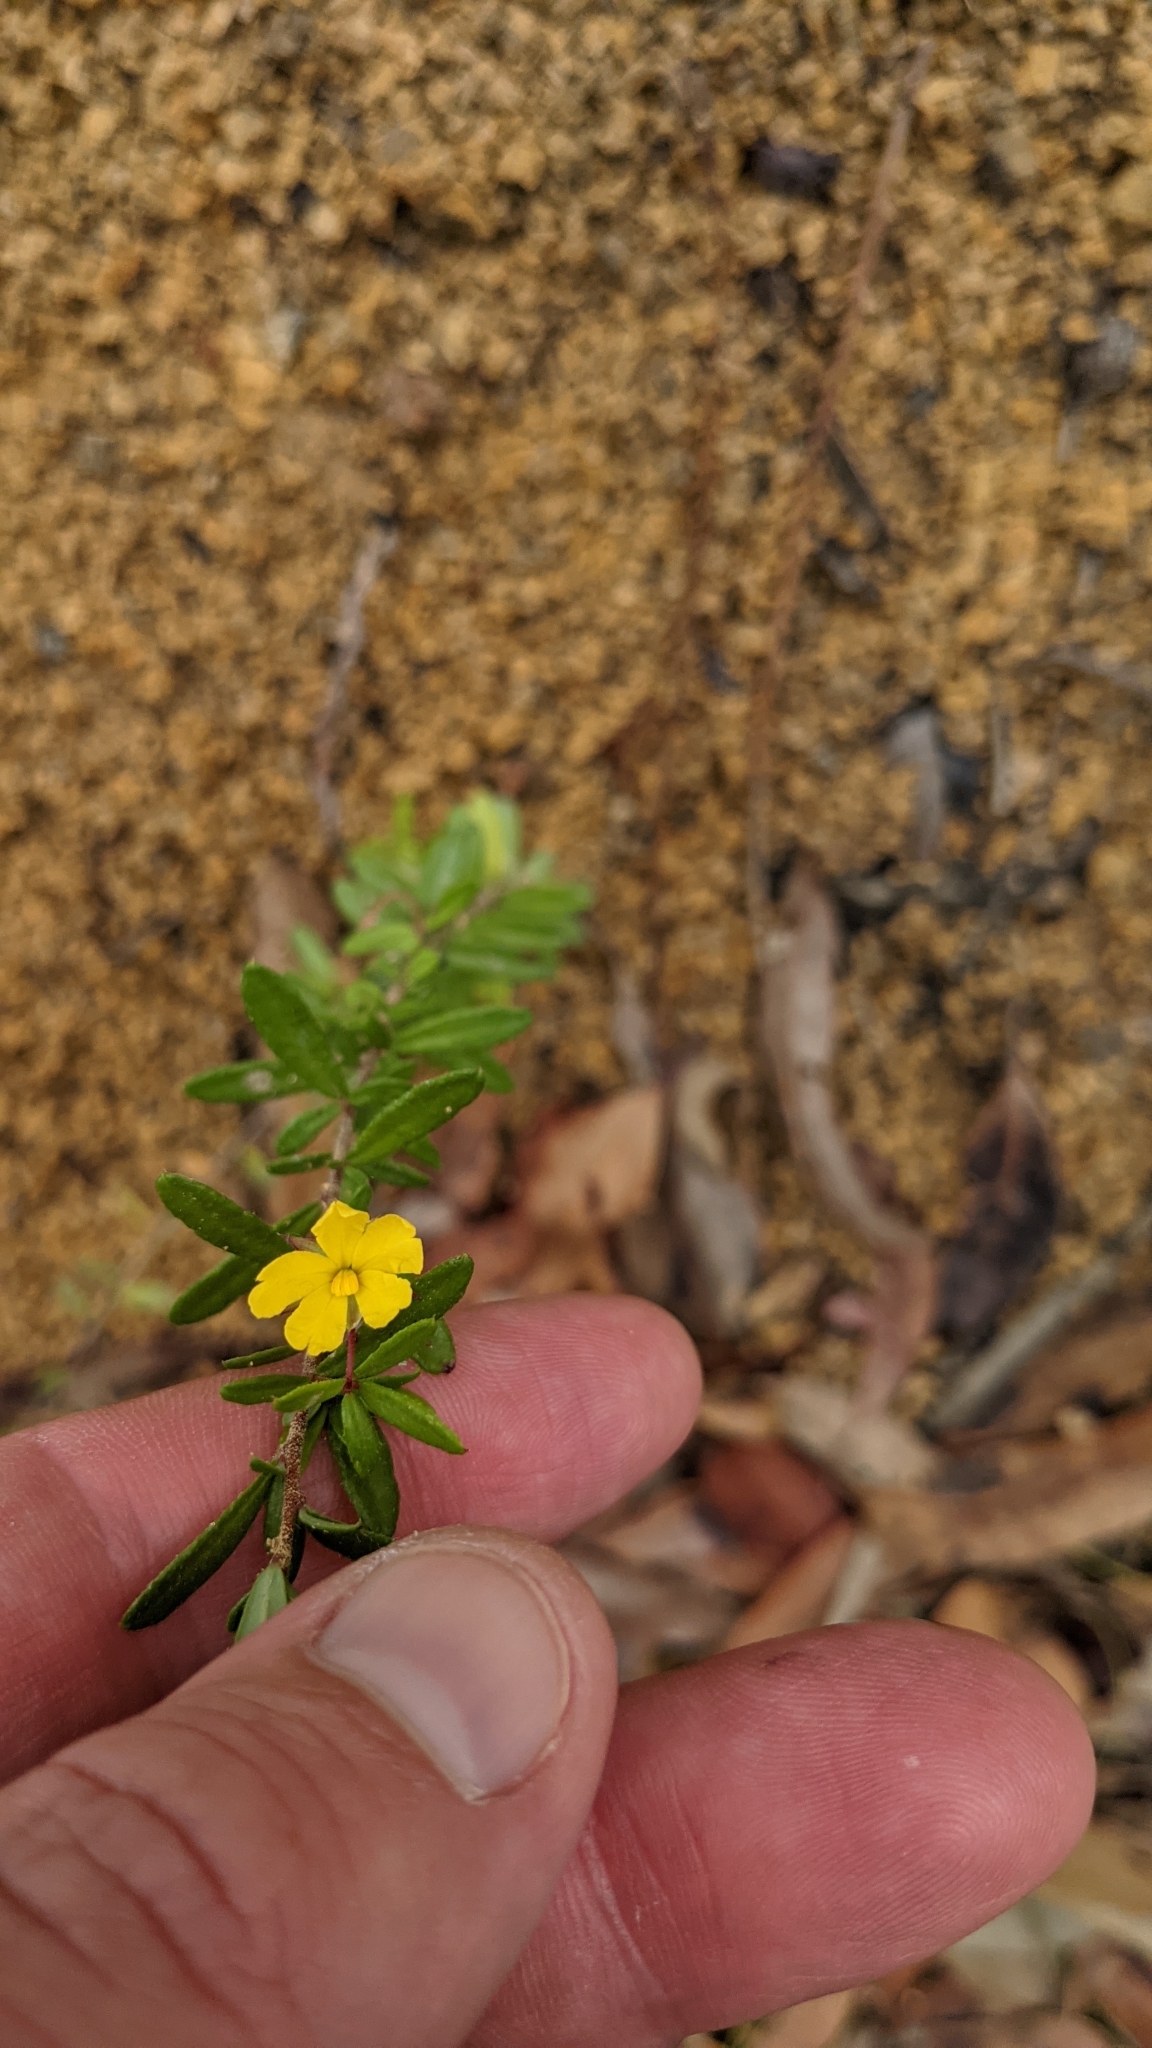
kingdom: Plantae
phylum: Tracheophyta
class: Magnoliopsida
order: Dilleniales
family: Dilleniaceae
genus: Hibbertia
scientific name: Hibbertia empetrifolia
